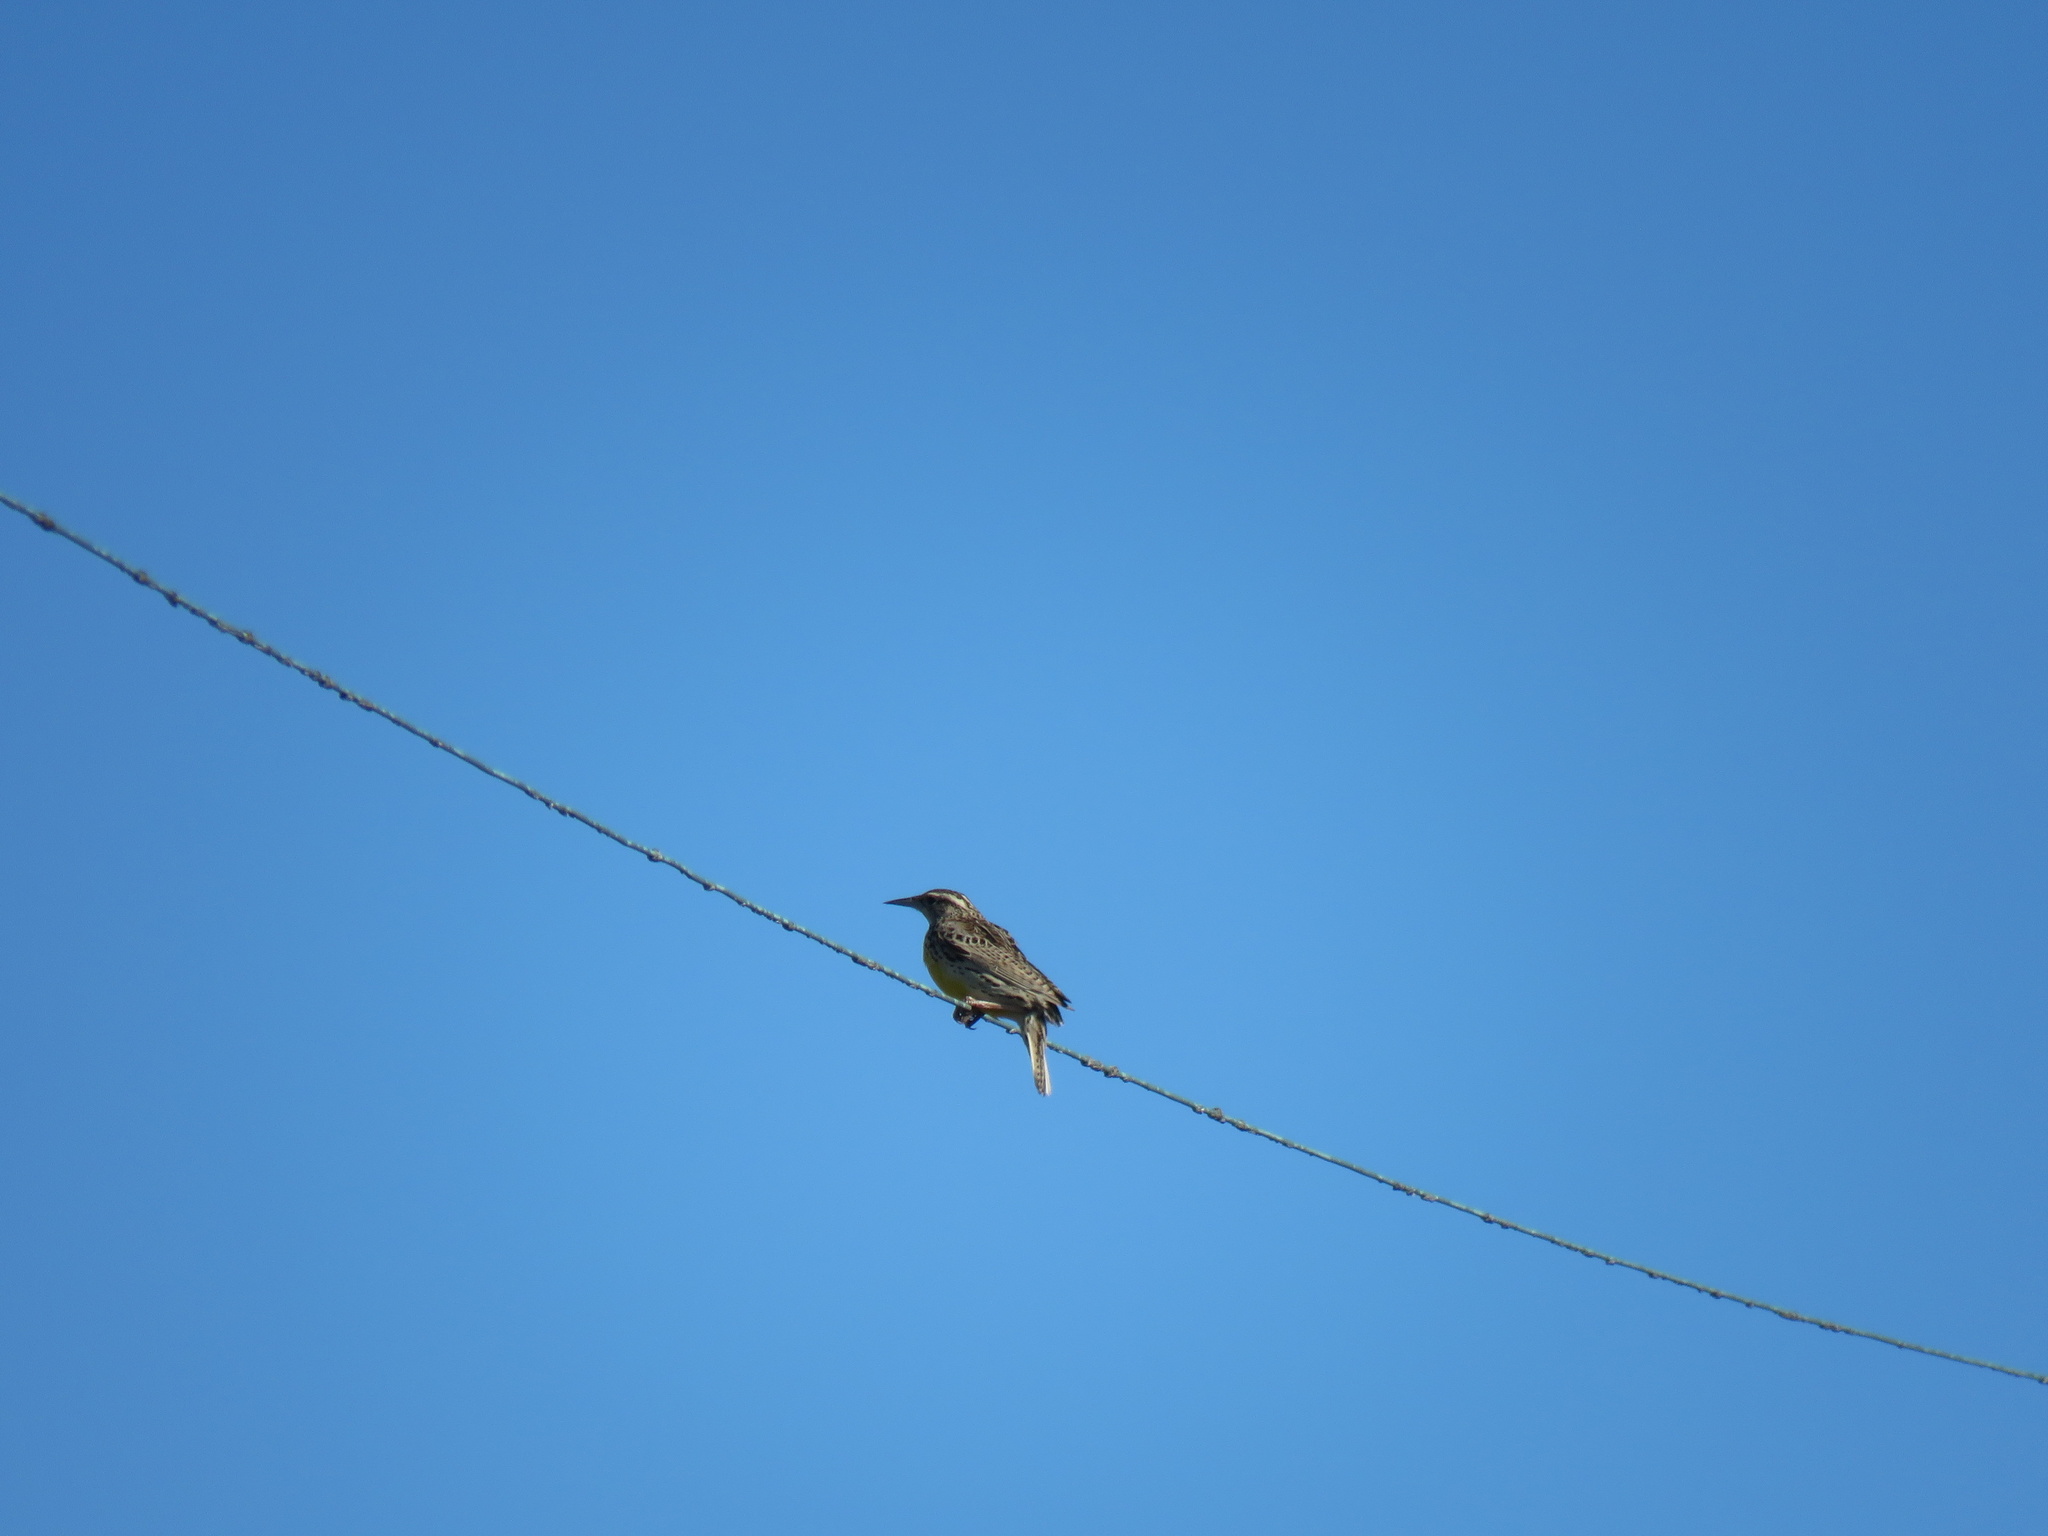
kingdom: Animalia
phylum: Chordata
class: Aves
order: Passeriformes
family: Icteridae
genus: Sturnella
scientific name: Sturnella neglecta
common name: Western meadowlark
